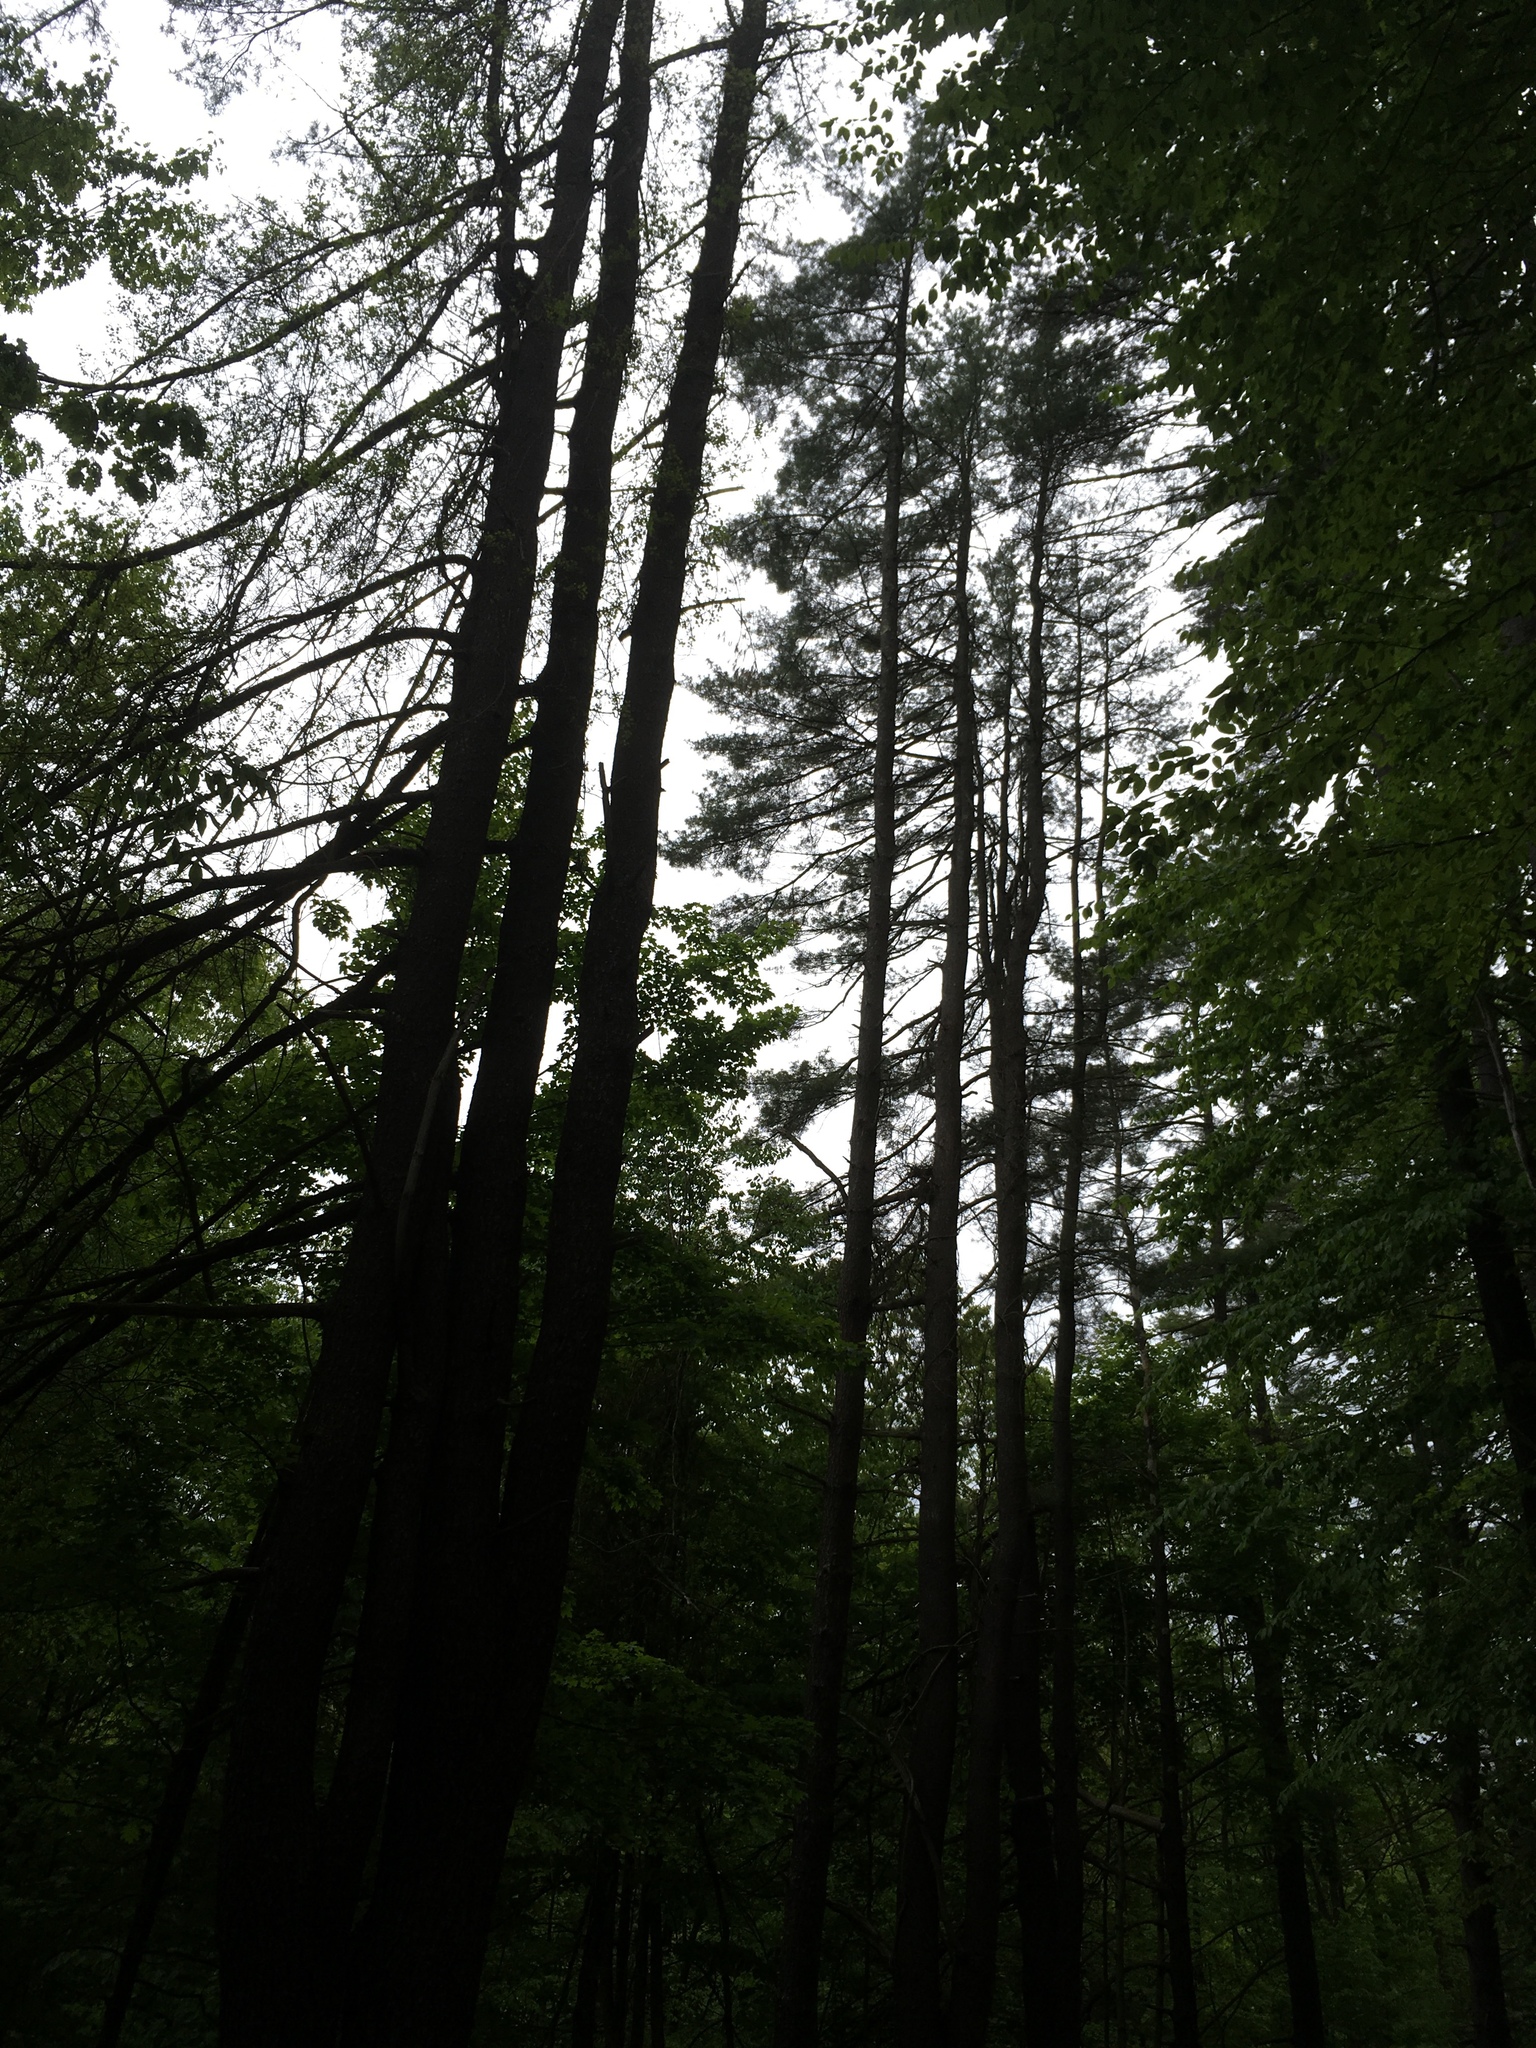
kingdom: Plantae
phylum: Tracheophyta
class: Pinopsida
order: Pinales
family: Pinaceae
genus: Pinus
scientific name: Pinus strobus
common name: Weymouth pine
